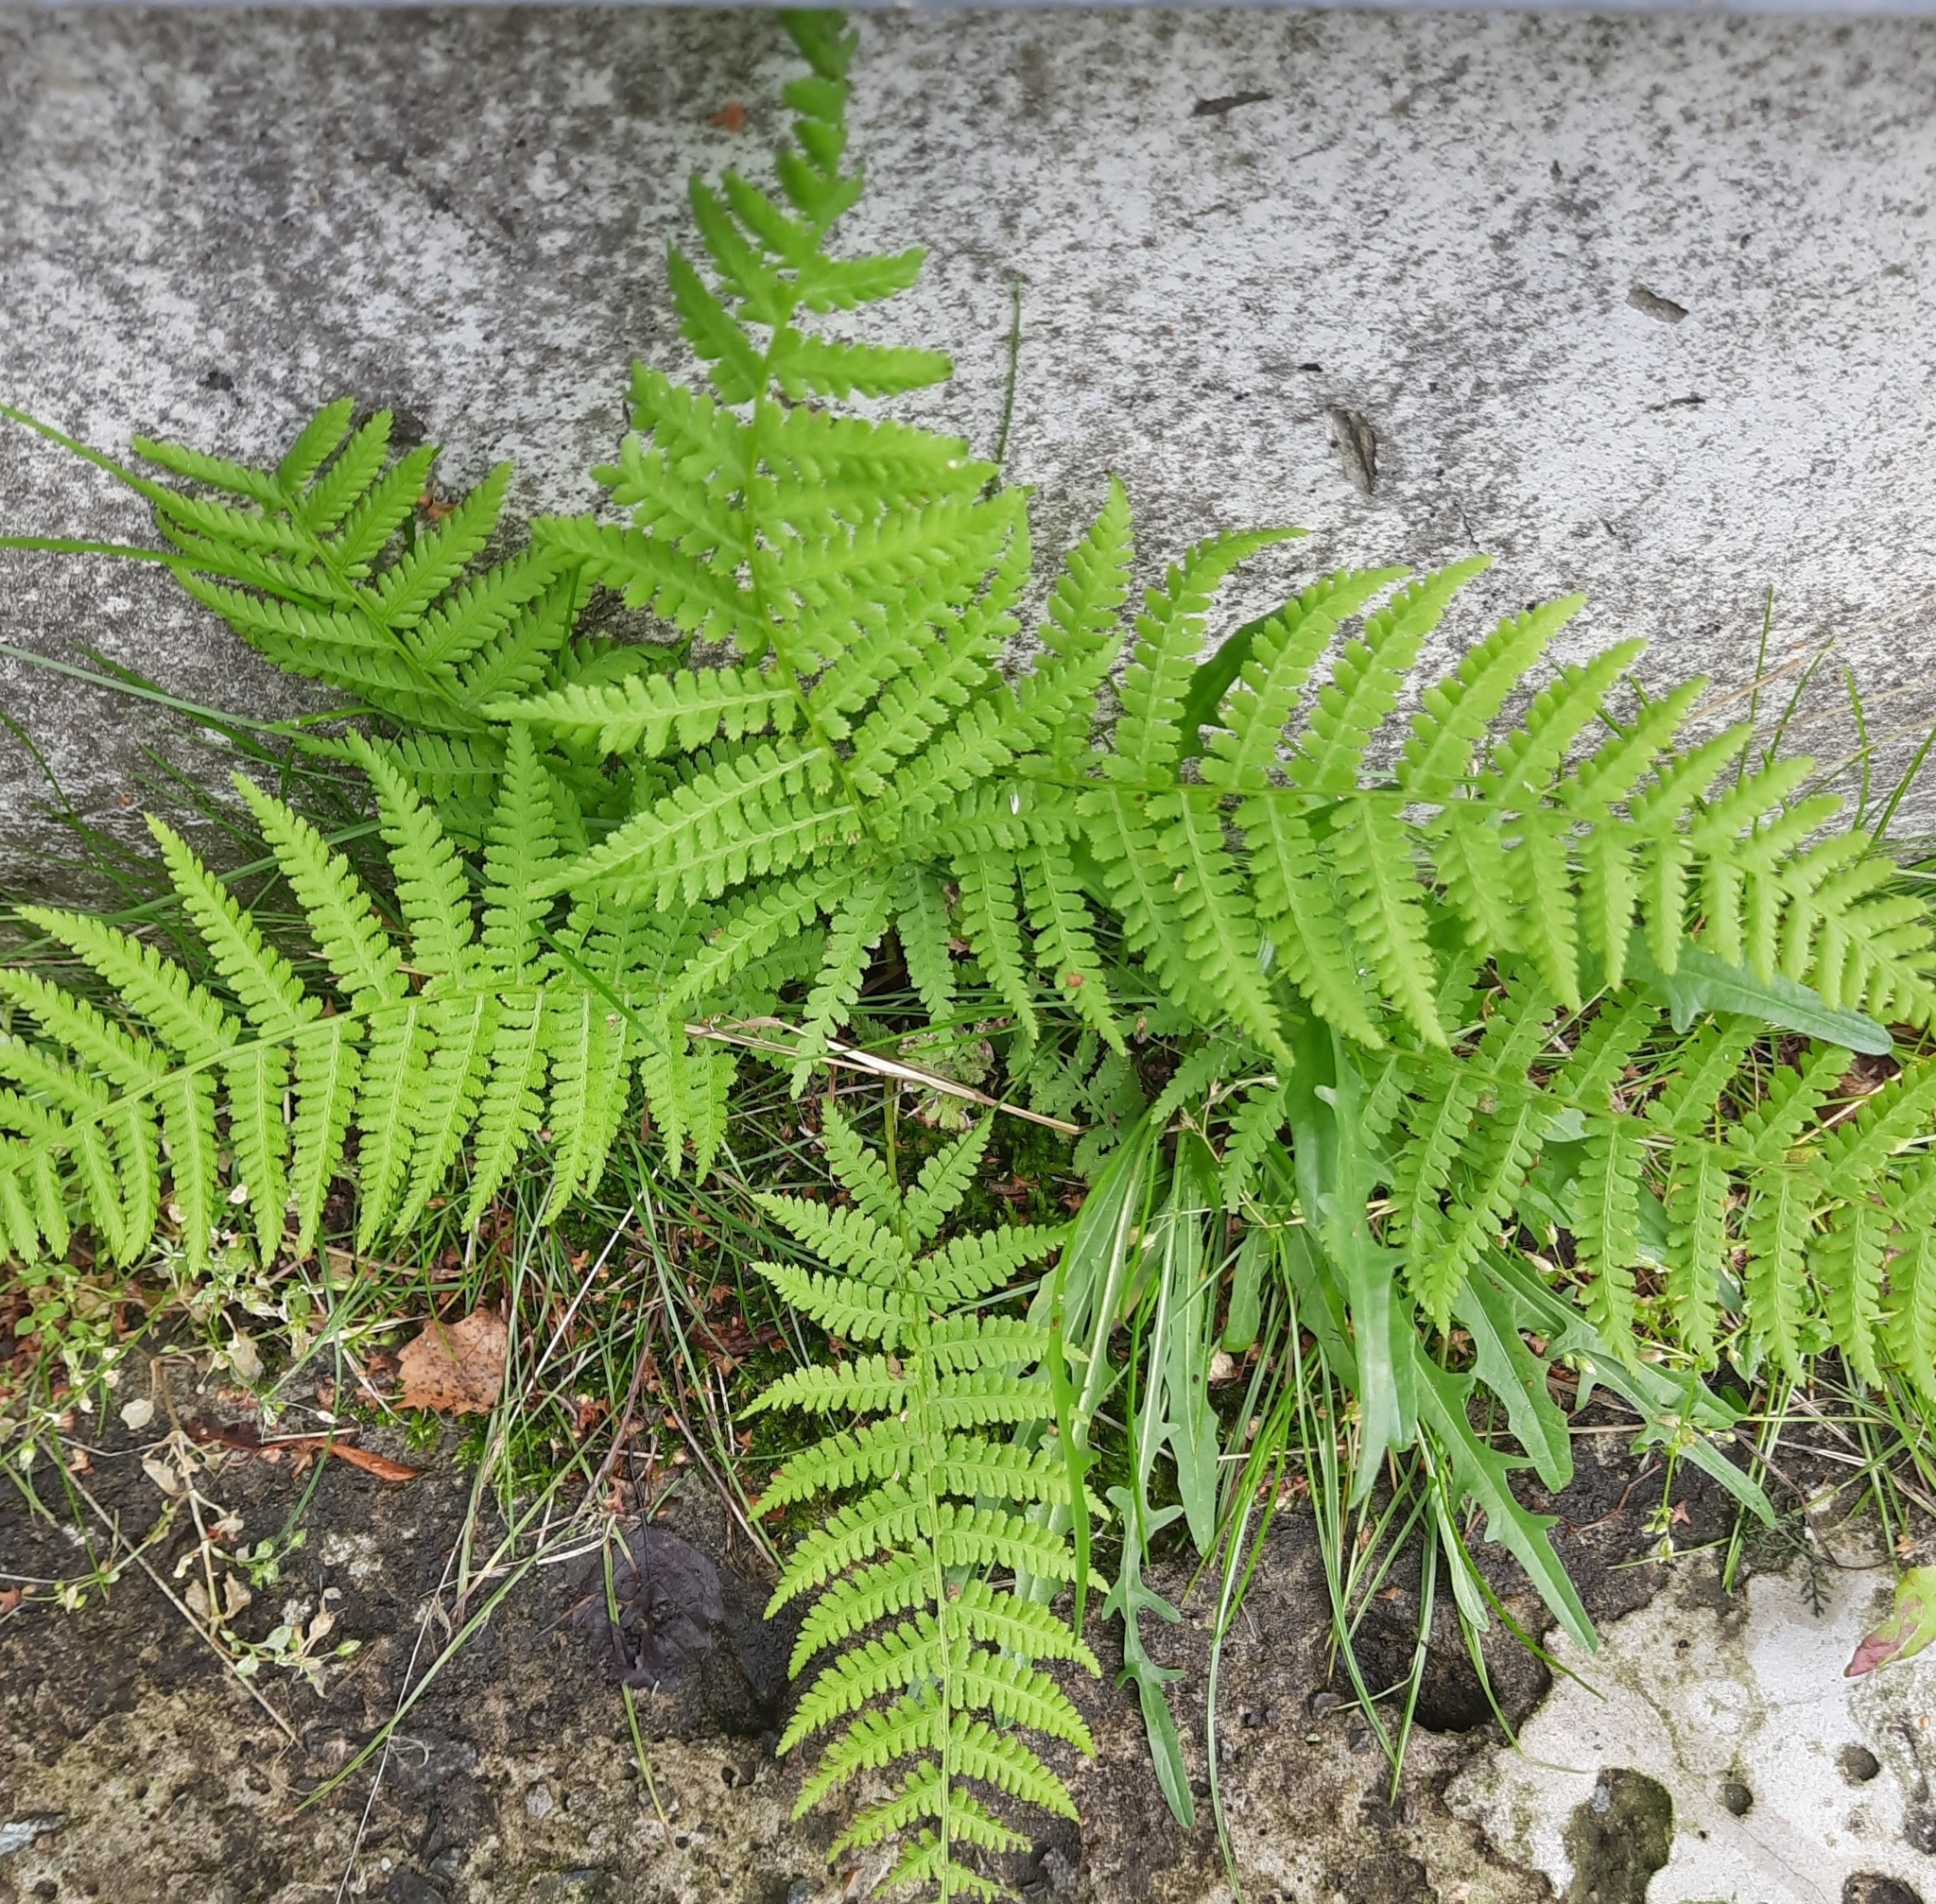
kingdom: Plantae
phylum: Tracheophyta
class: Polypodiopsida
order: Polypodiales
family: Athyriaceae
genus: Athyrium
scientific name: Athyrium filix-femina
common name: Lady fern
